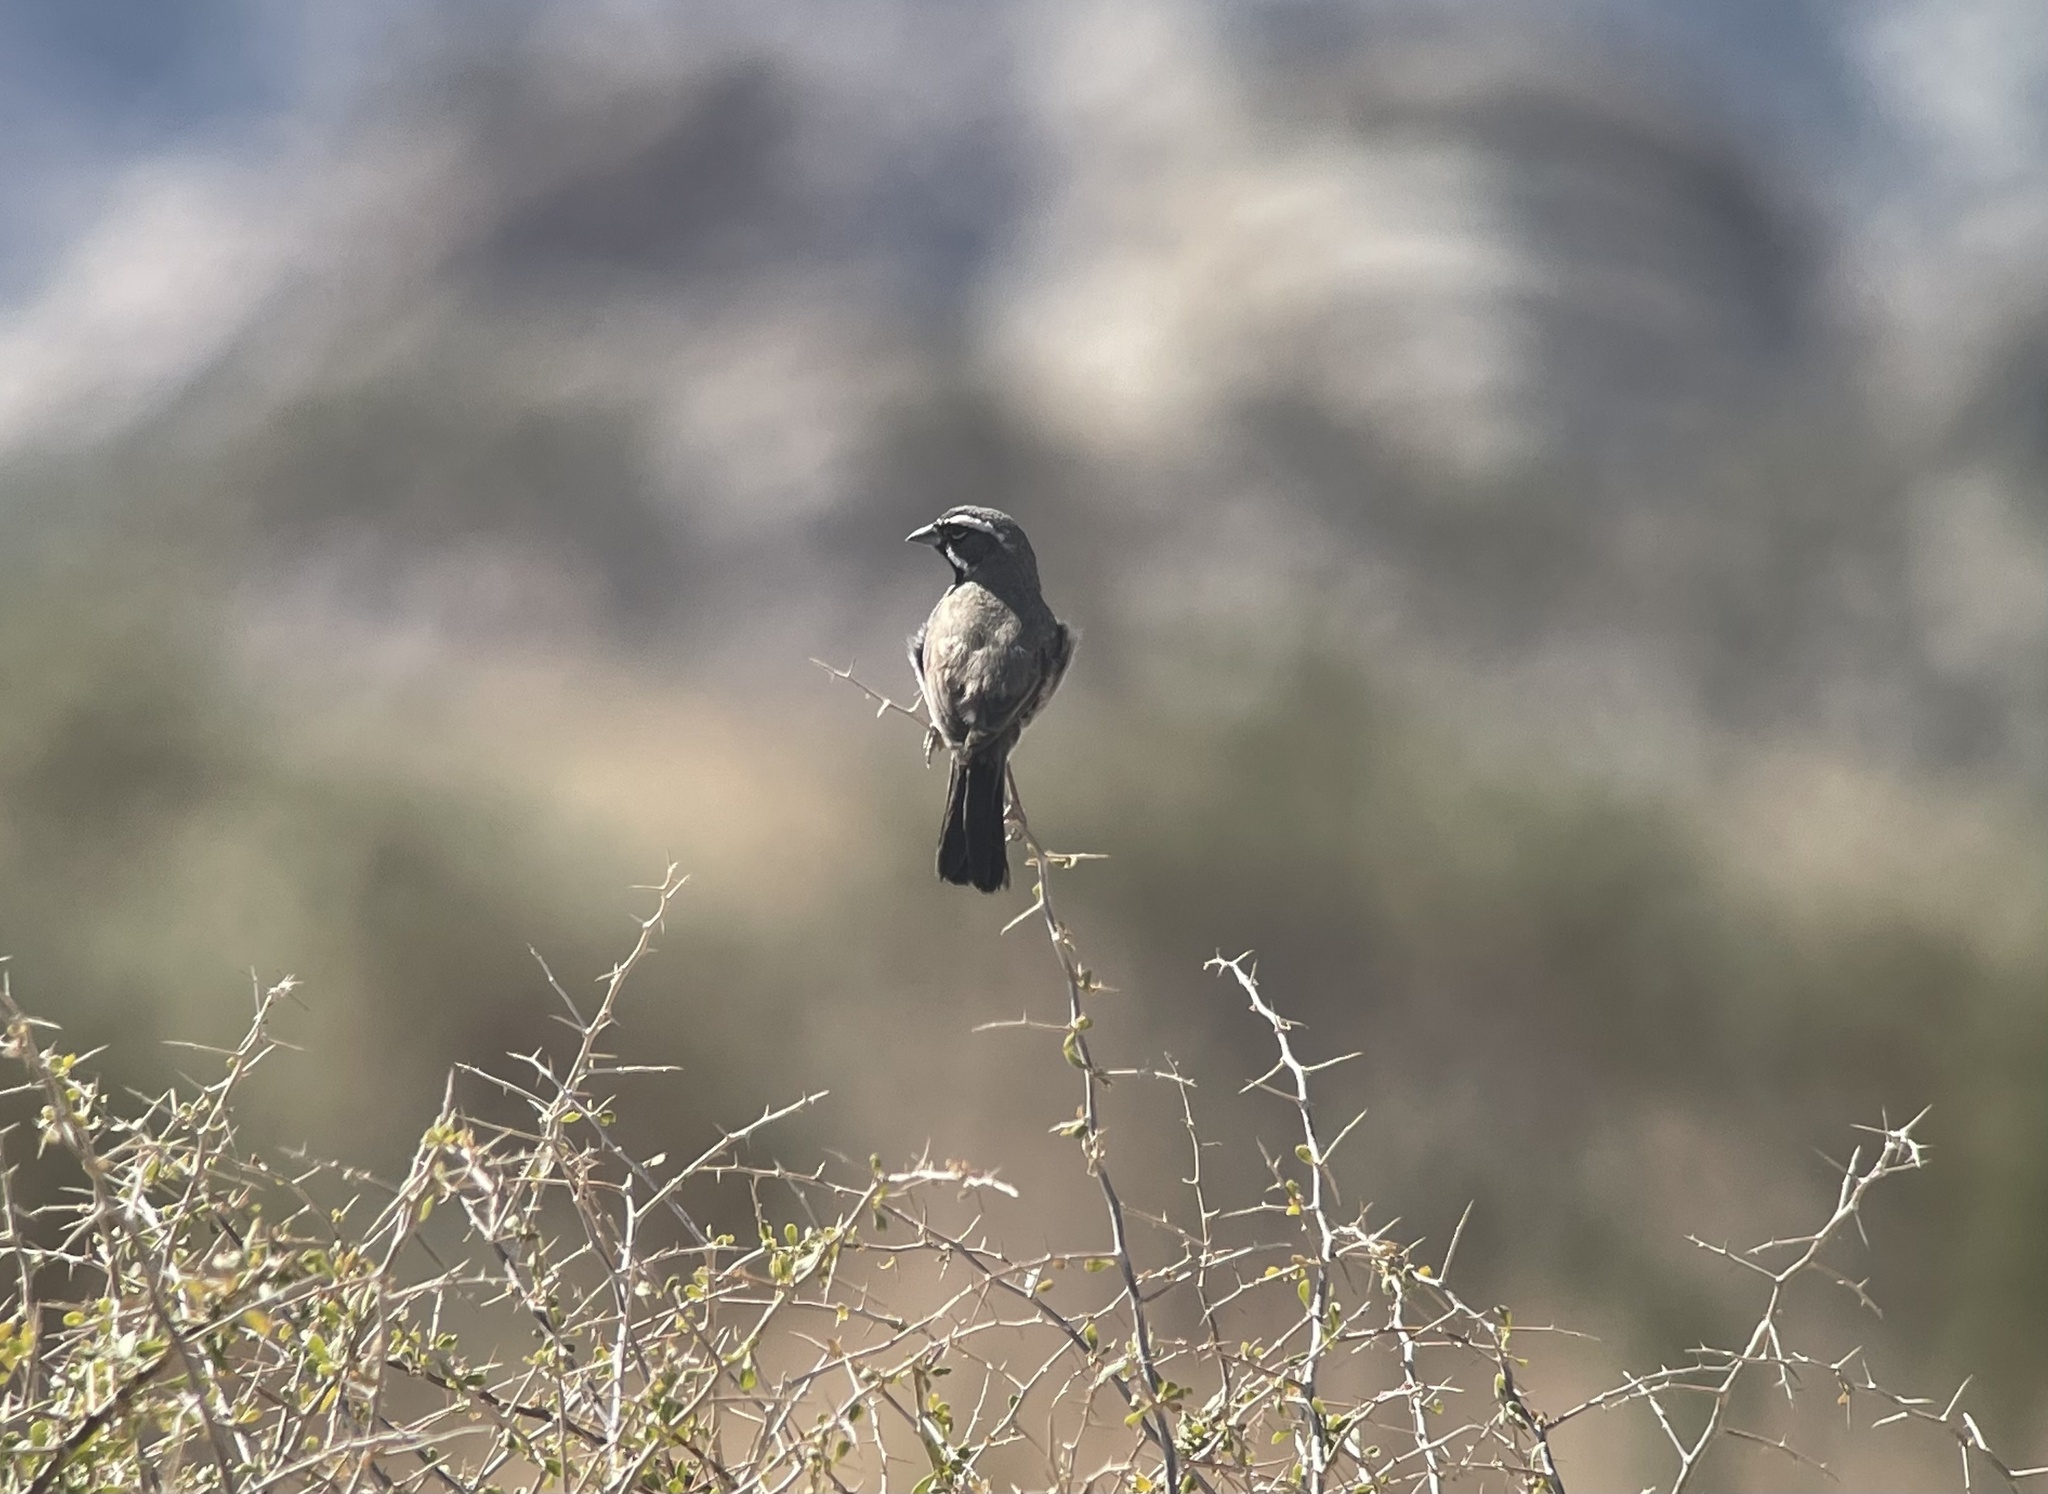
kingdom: Animalia
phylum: Chordata
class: Aves
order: Passeriformes
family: Passerellidae
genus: Amphispiza
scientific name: Amphispiza bilineata
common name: Black-throated sparrow
